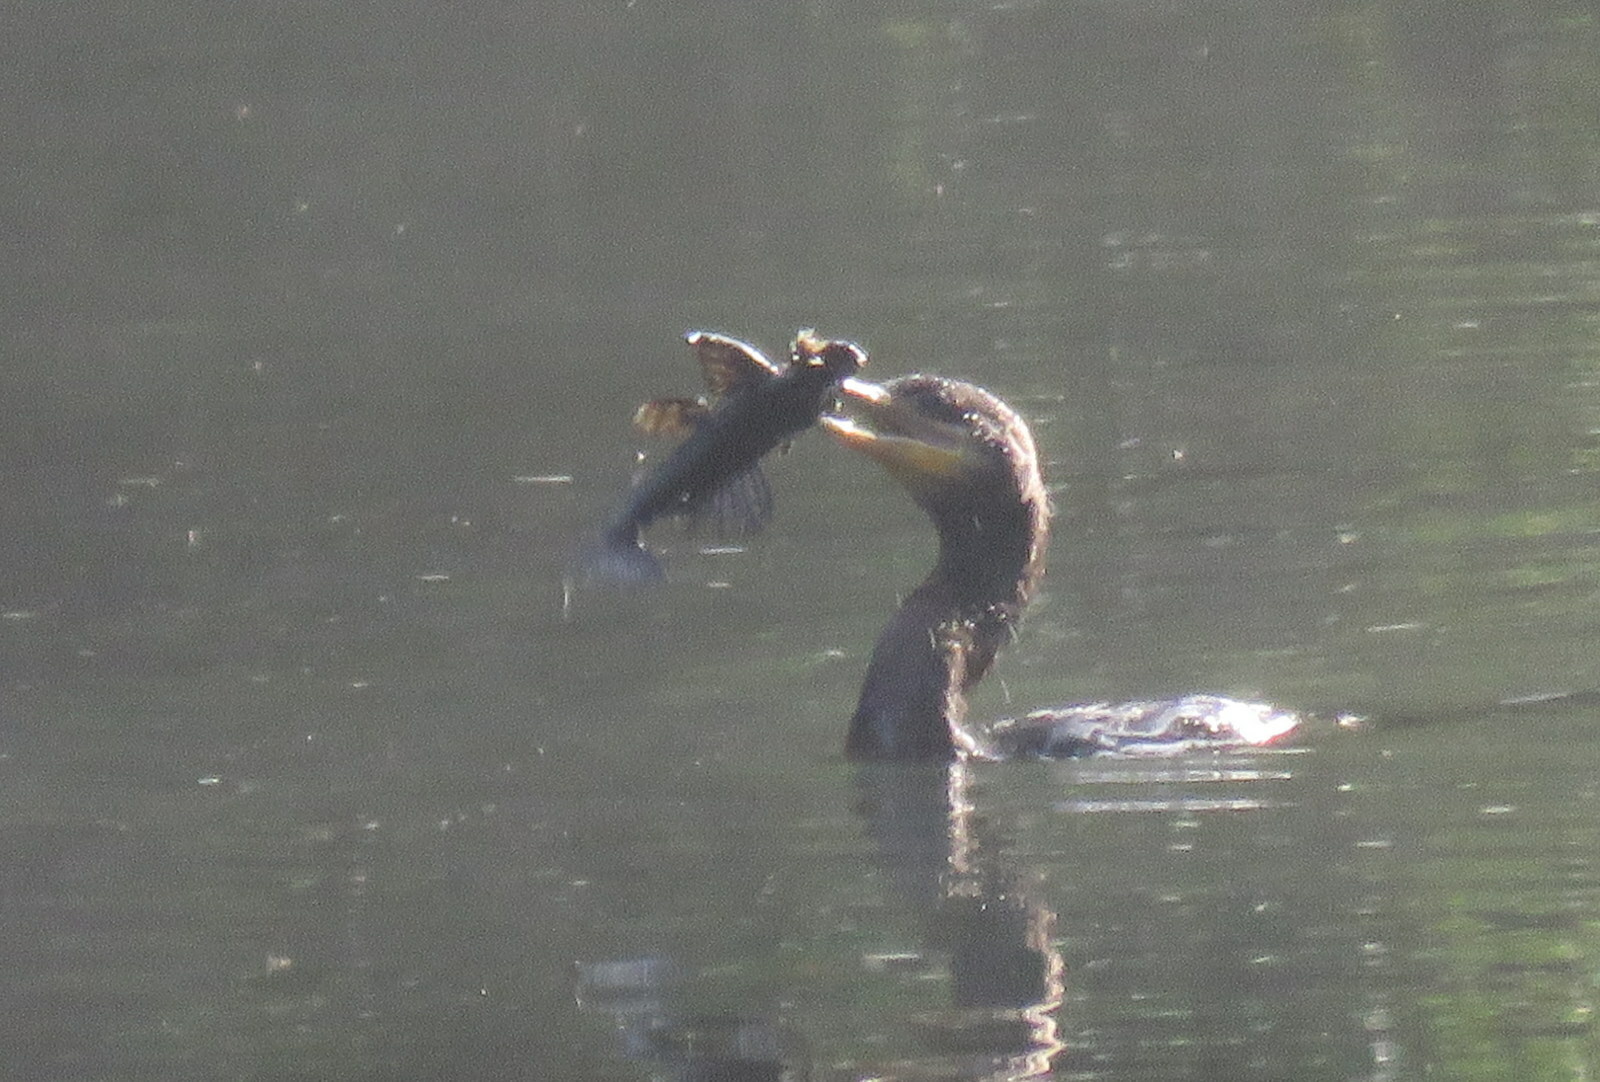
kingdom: Animalia
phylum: Chordata
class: Aves
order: Suliformes
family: Phalacrocoracidae
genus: Phalacrocorax
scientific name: Phalacrocorax brasilianus
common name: Neotropic cormorant
